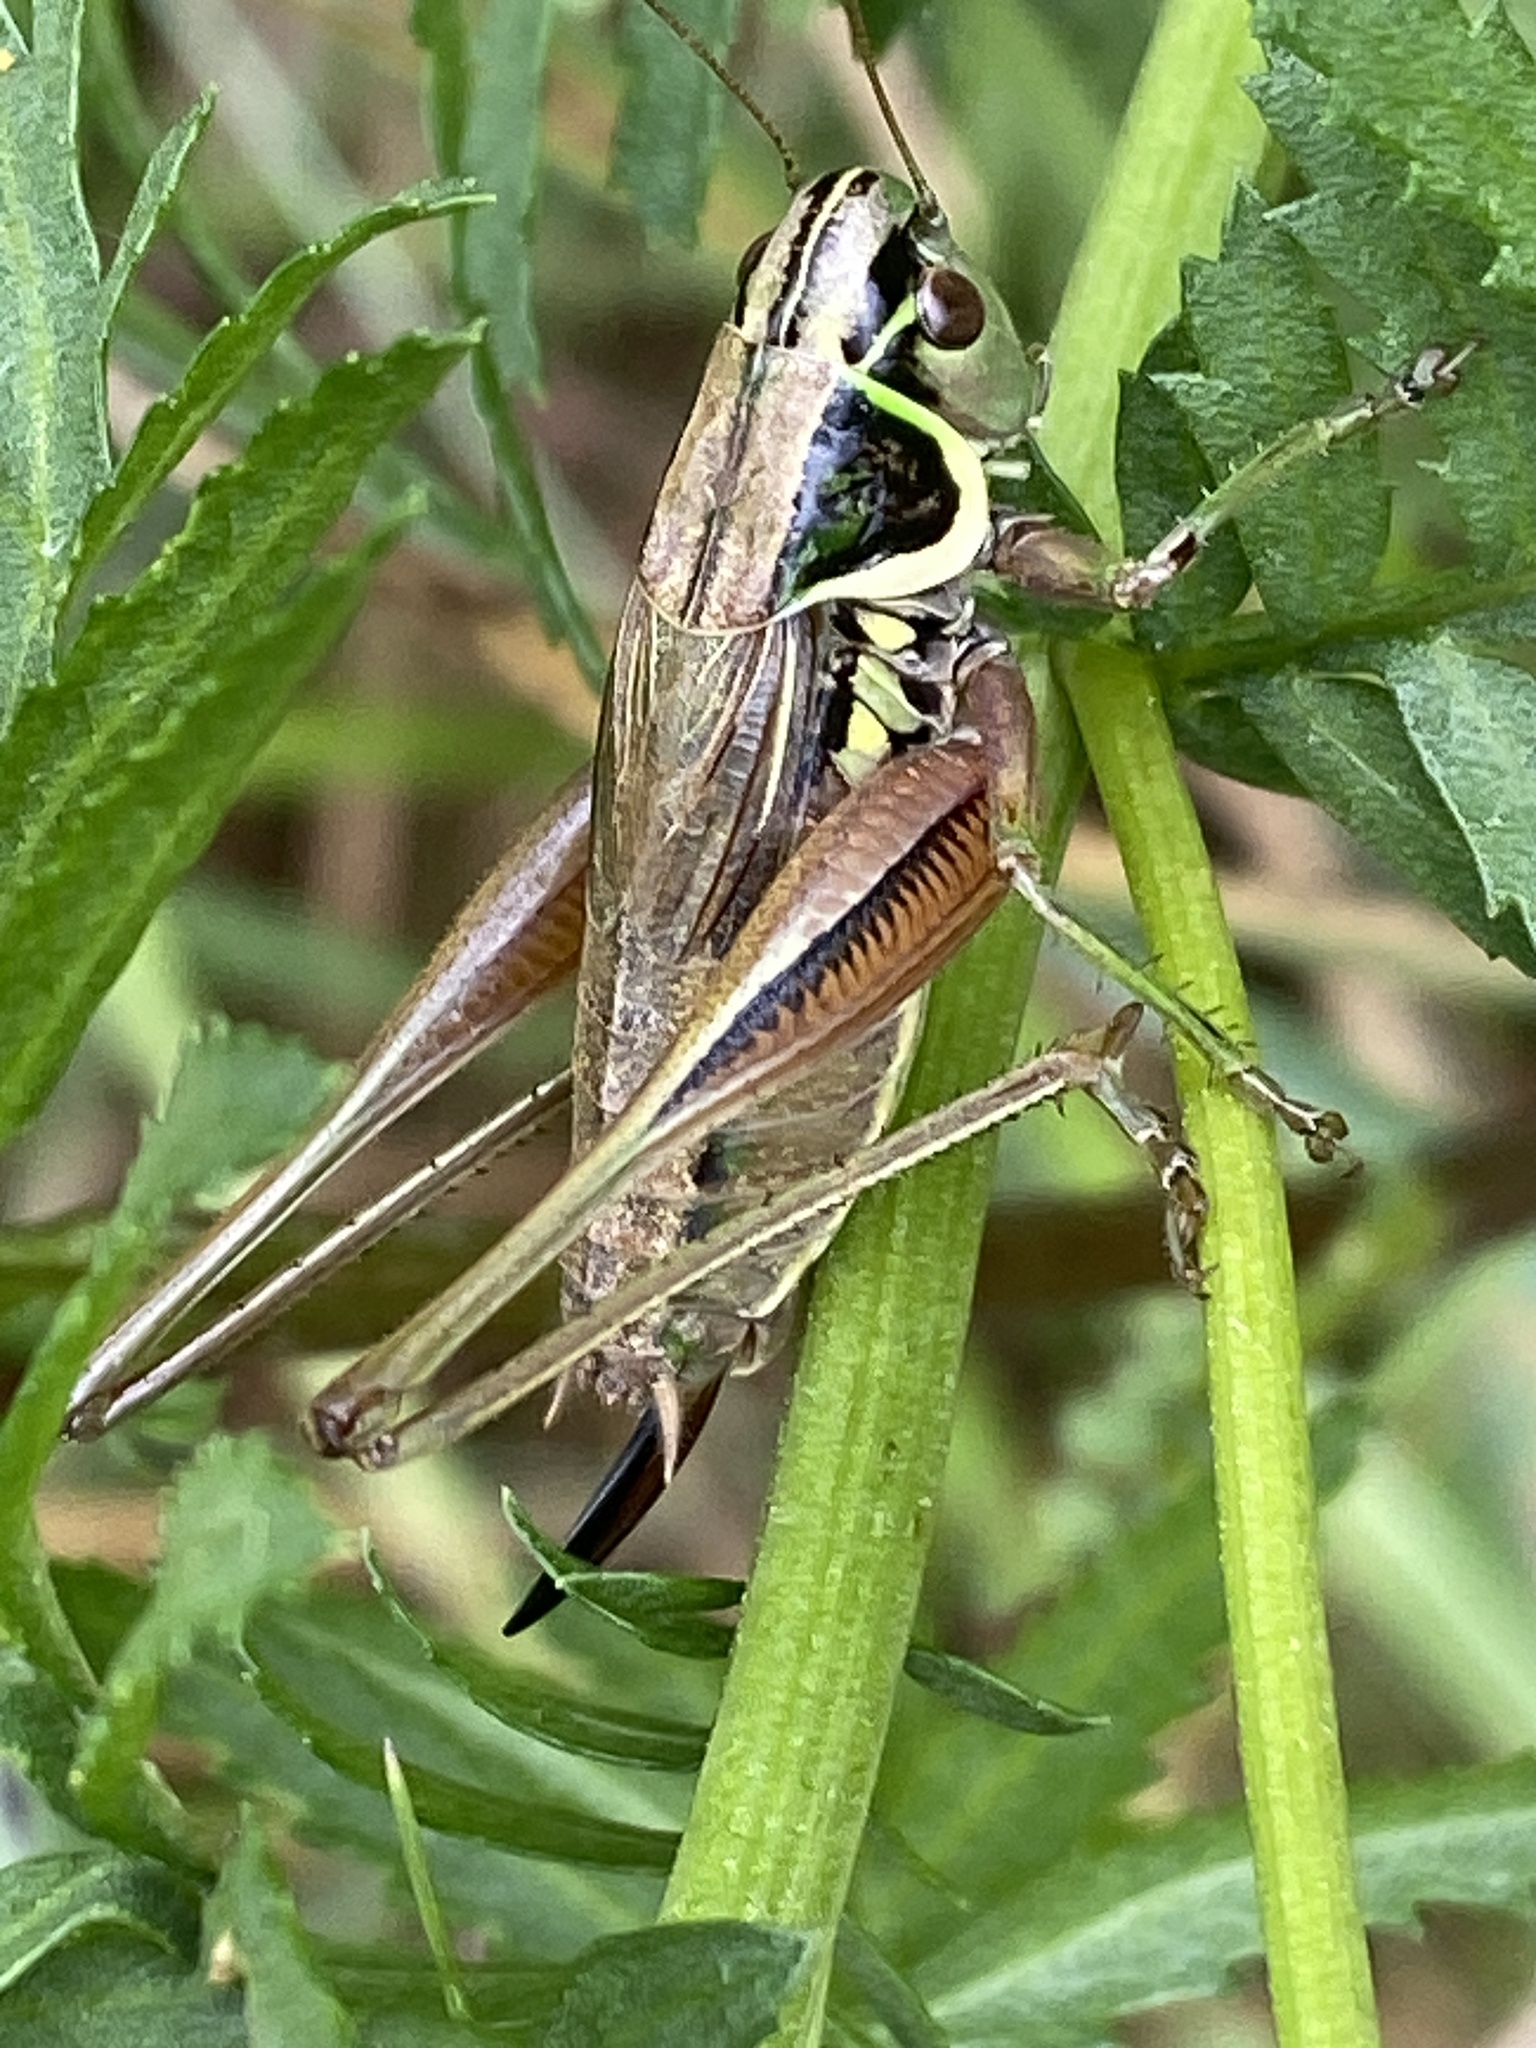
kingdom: Animalia
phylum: Arthropoda
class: Insecta
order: Orthoptera
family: Tettigoniidae
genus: Roeseliana
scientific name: Roeseliana roeselii
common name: Roesel's bush cricket
